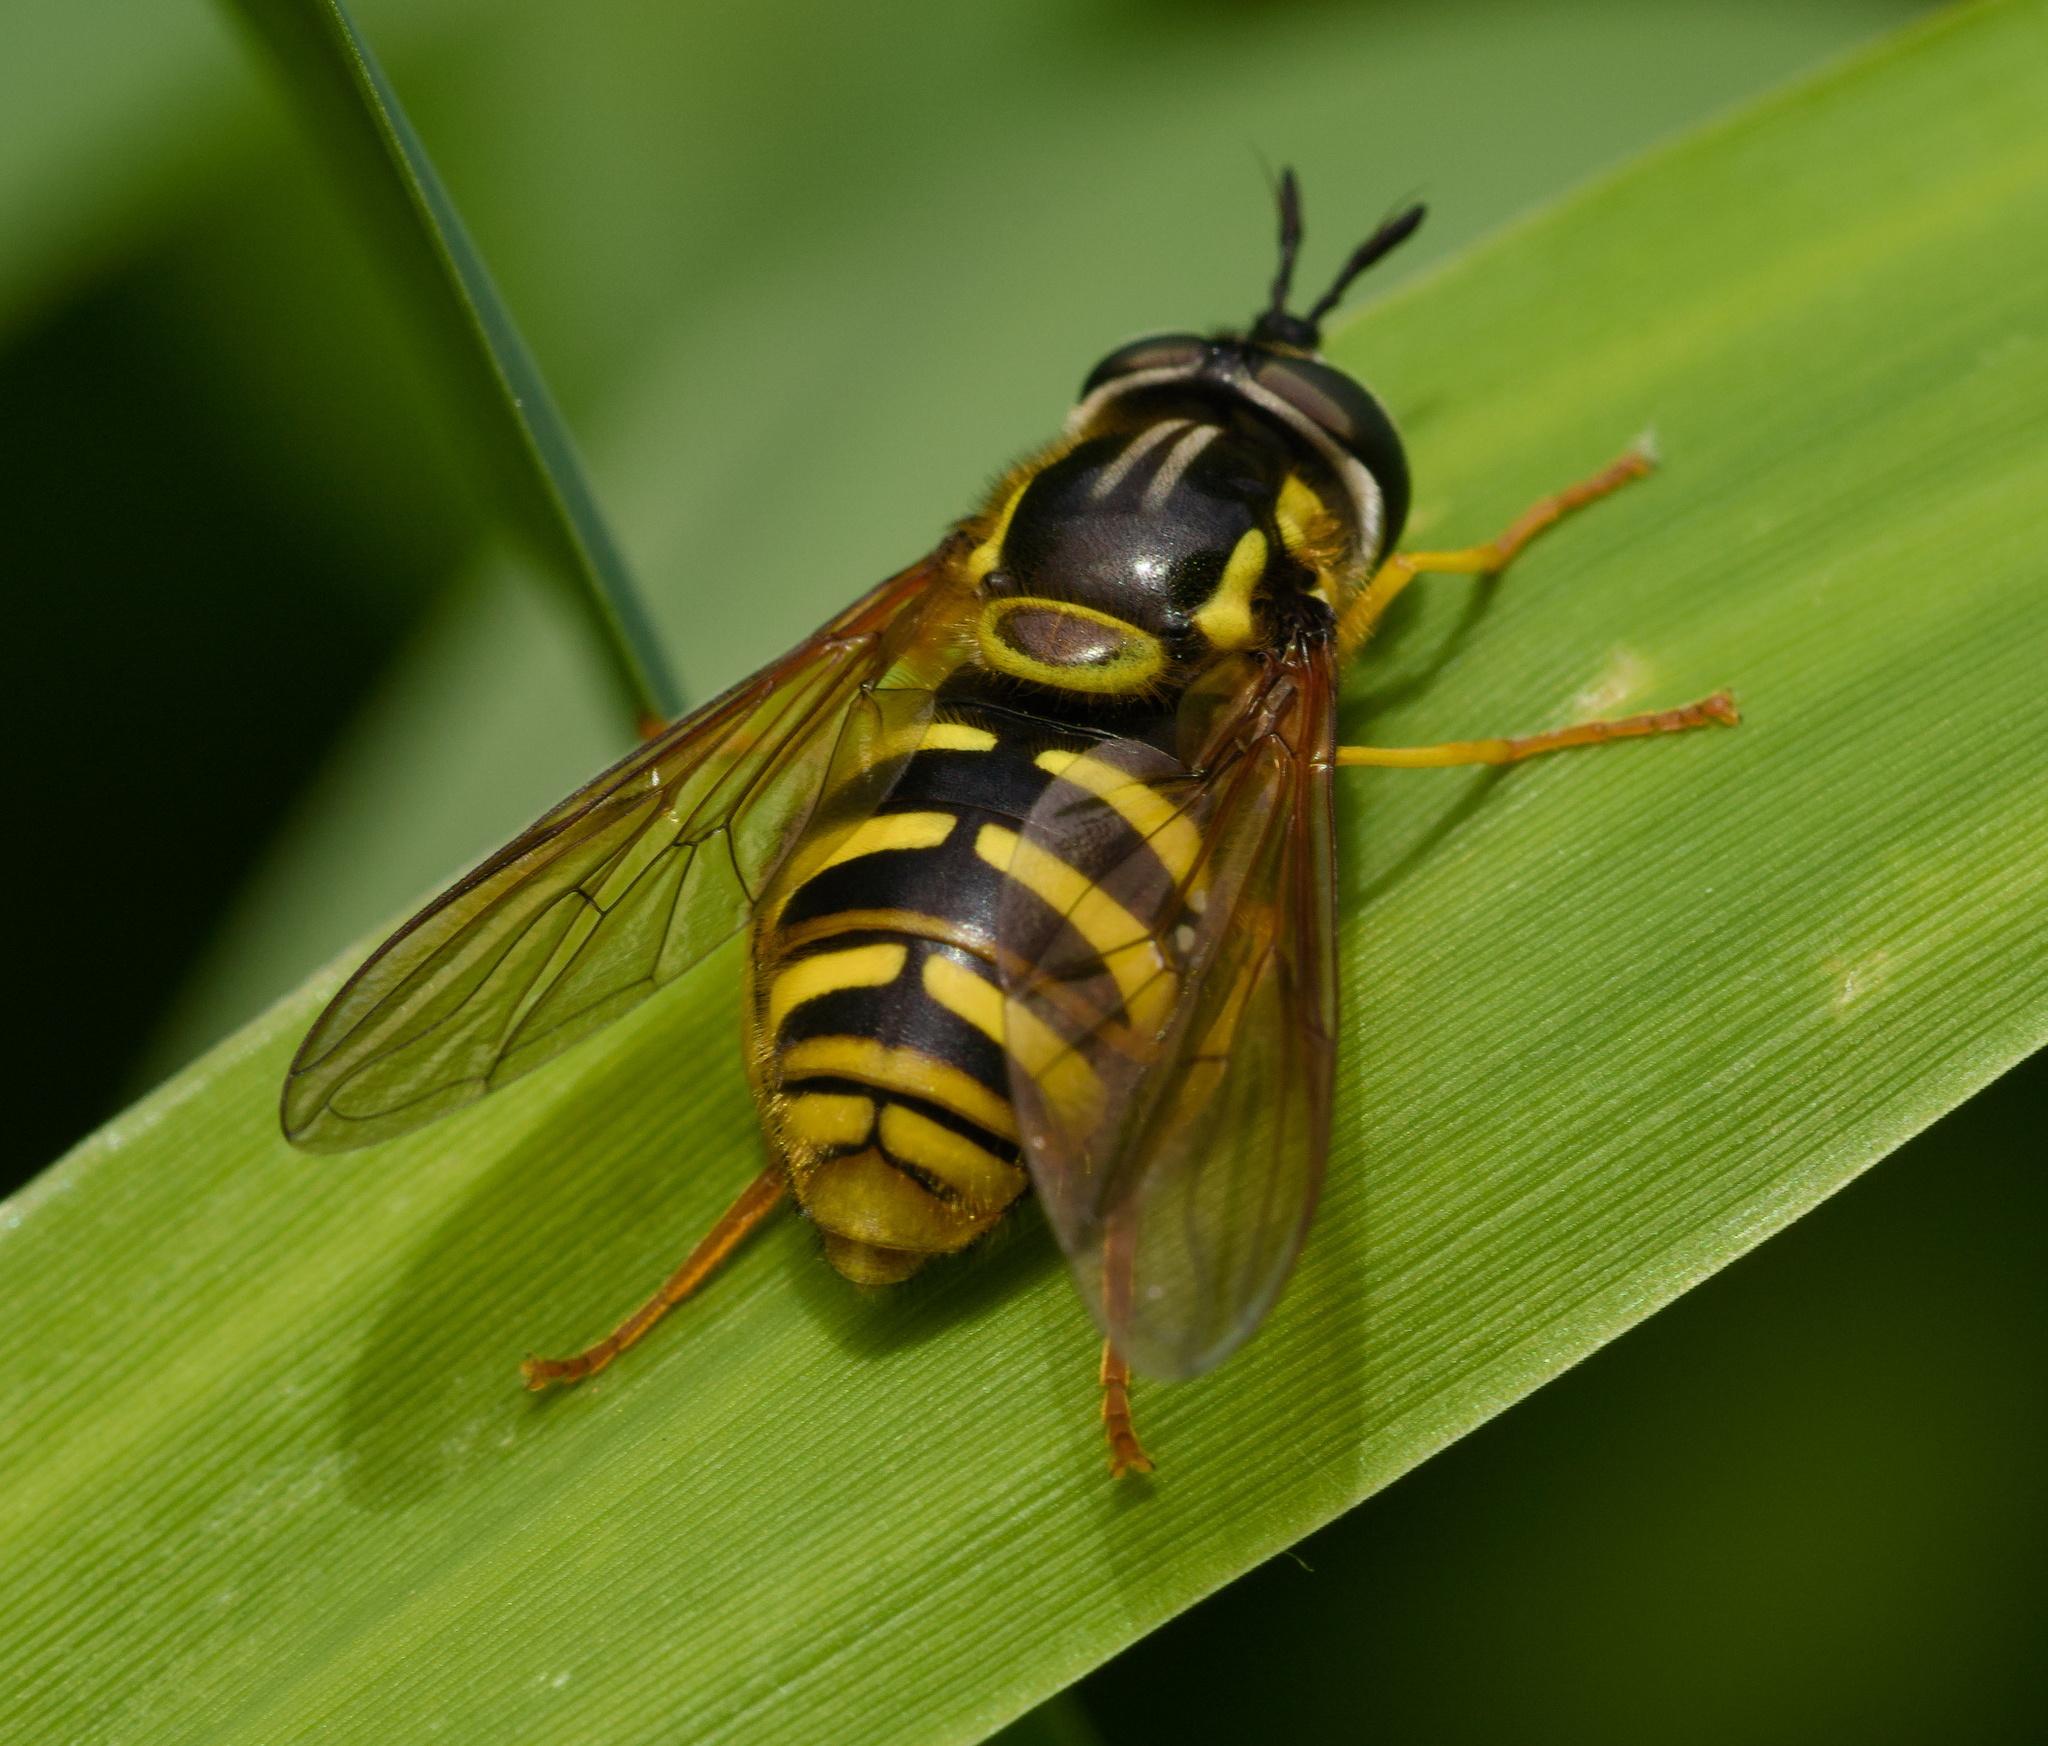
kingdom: Animalia
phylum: Arthropoda
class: Insecta
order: Diptera
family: Syrphidae
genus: Chrysotoxum
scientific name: Chrysotoxum cautum
